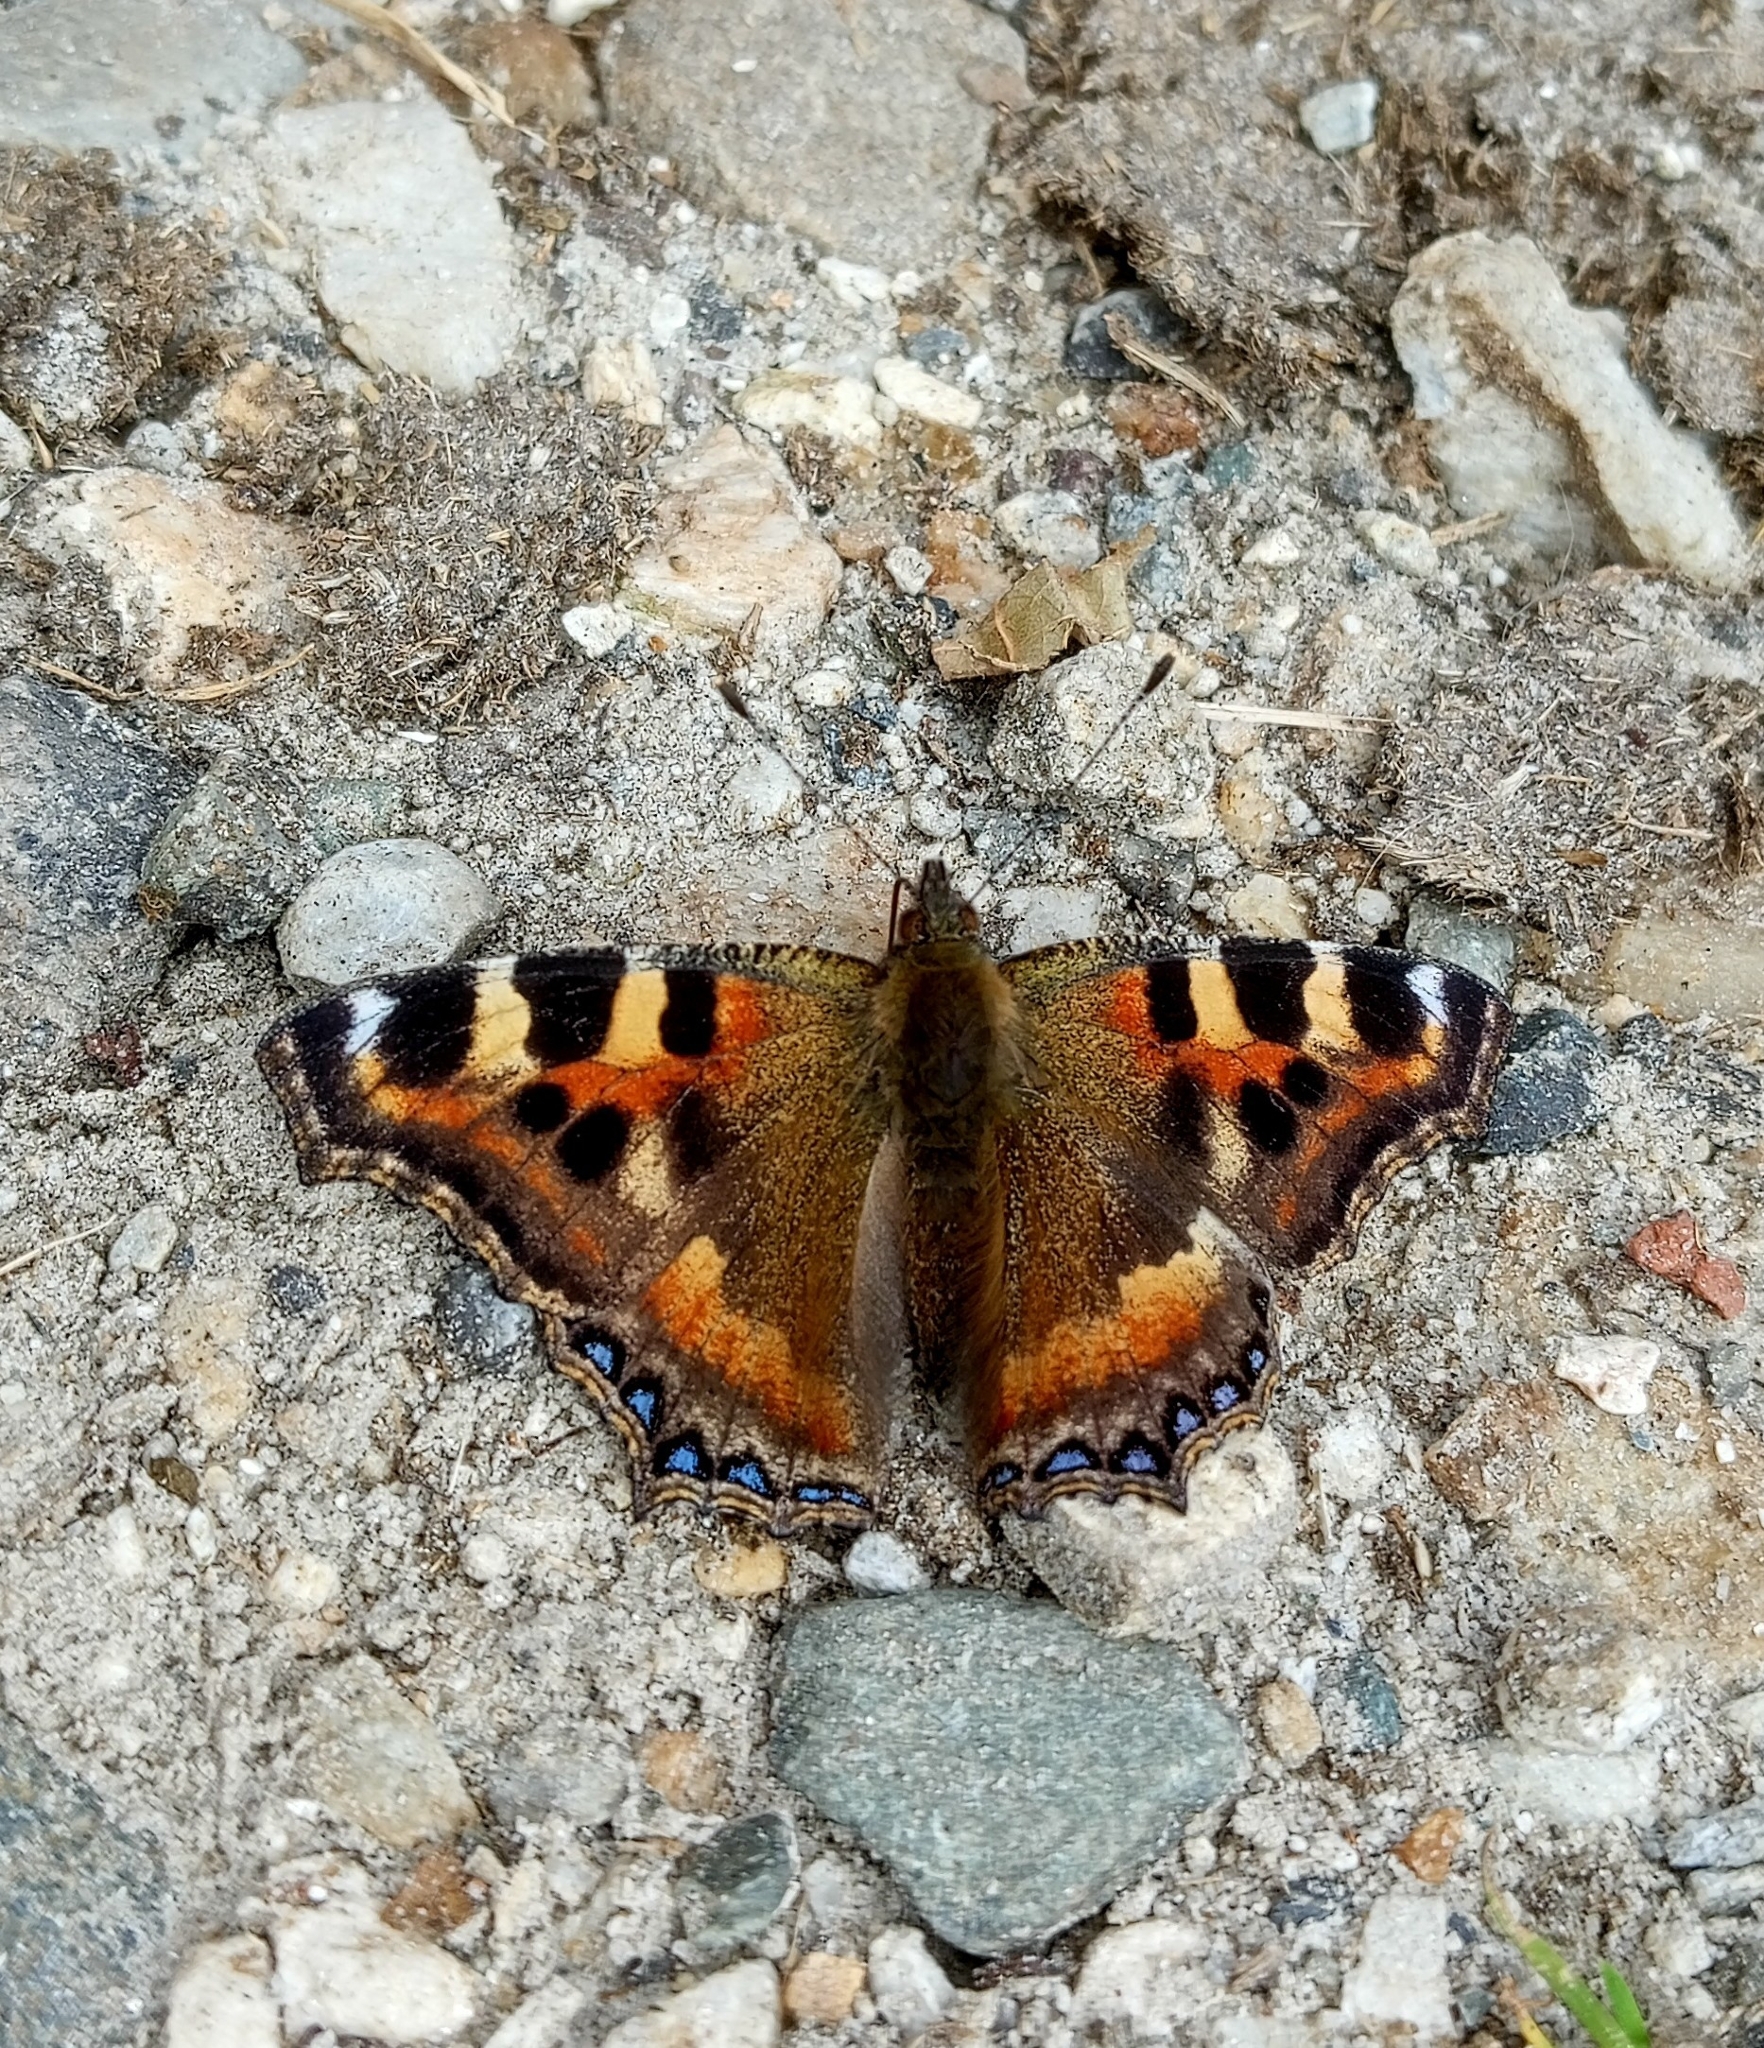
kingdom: Animalia
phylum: Arthropoda
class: Insecta
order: Lepidoptera
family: Nymphalidae
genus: Aglais
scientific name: Aglais caschmirensis
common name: Indian tortoiseshell
